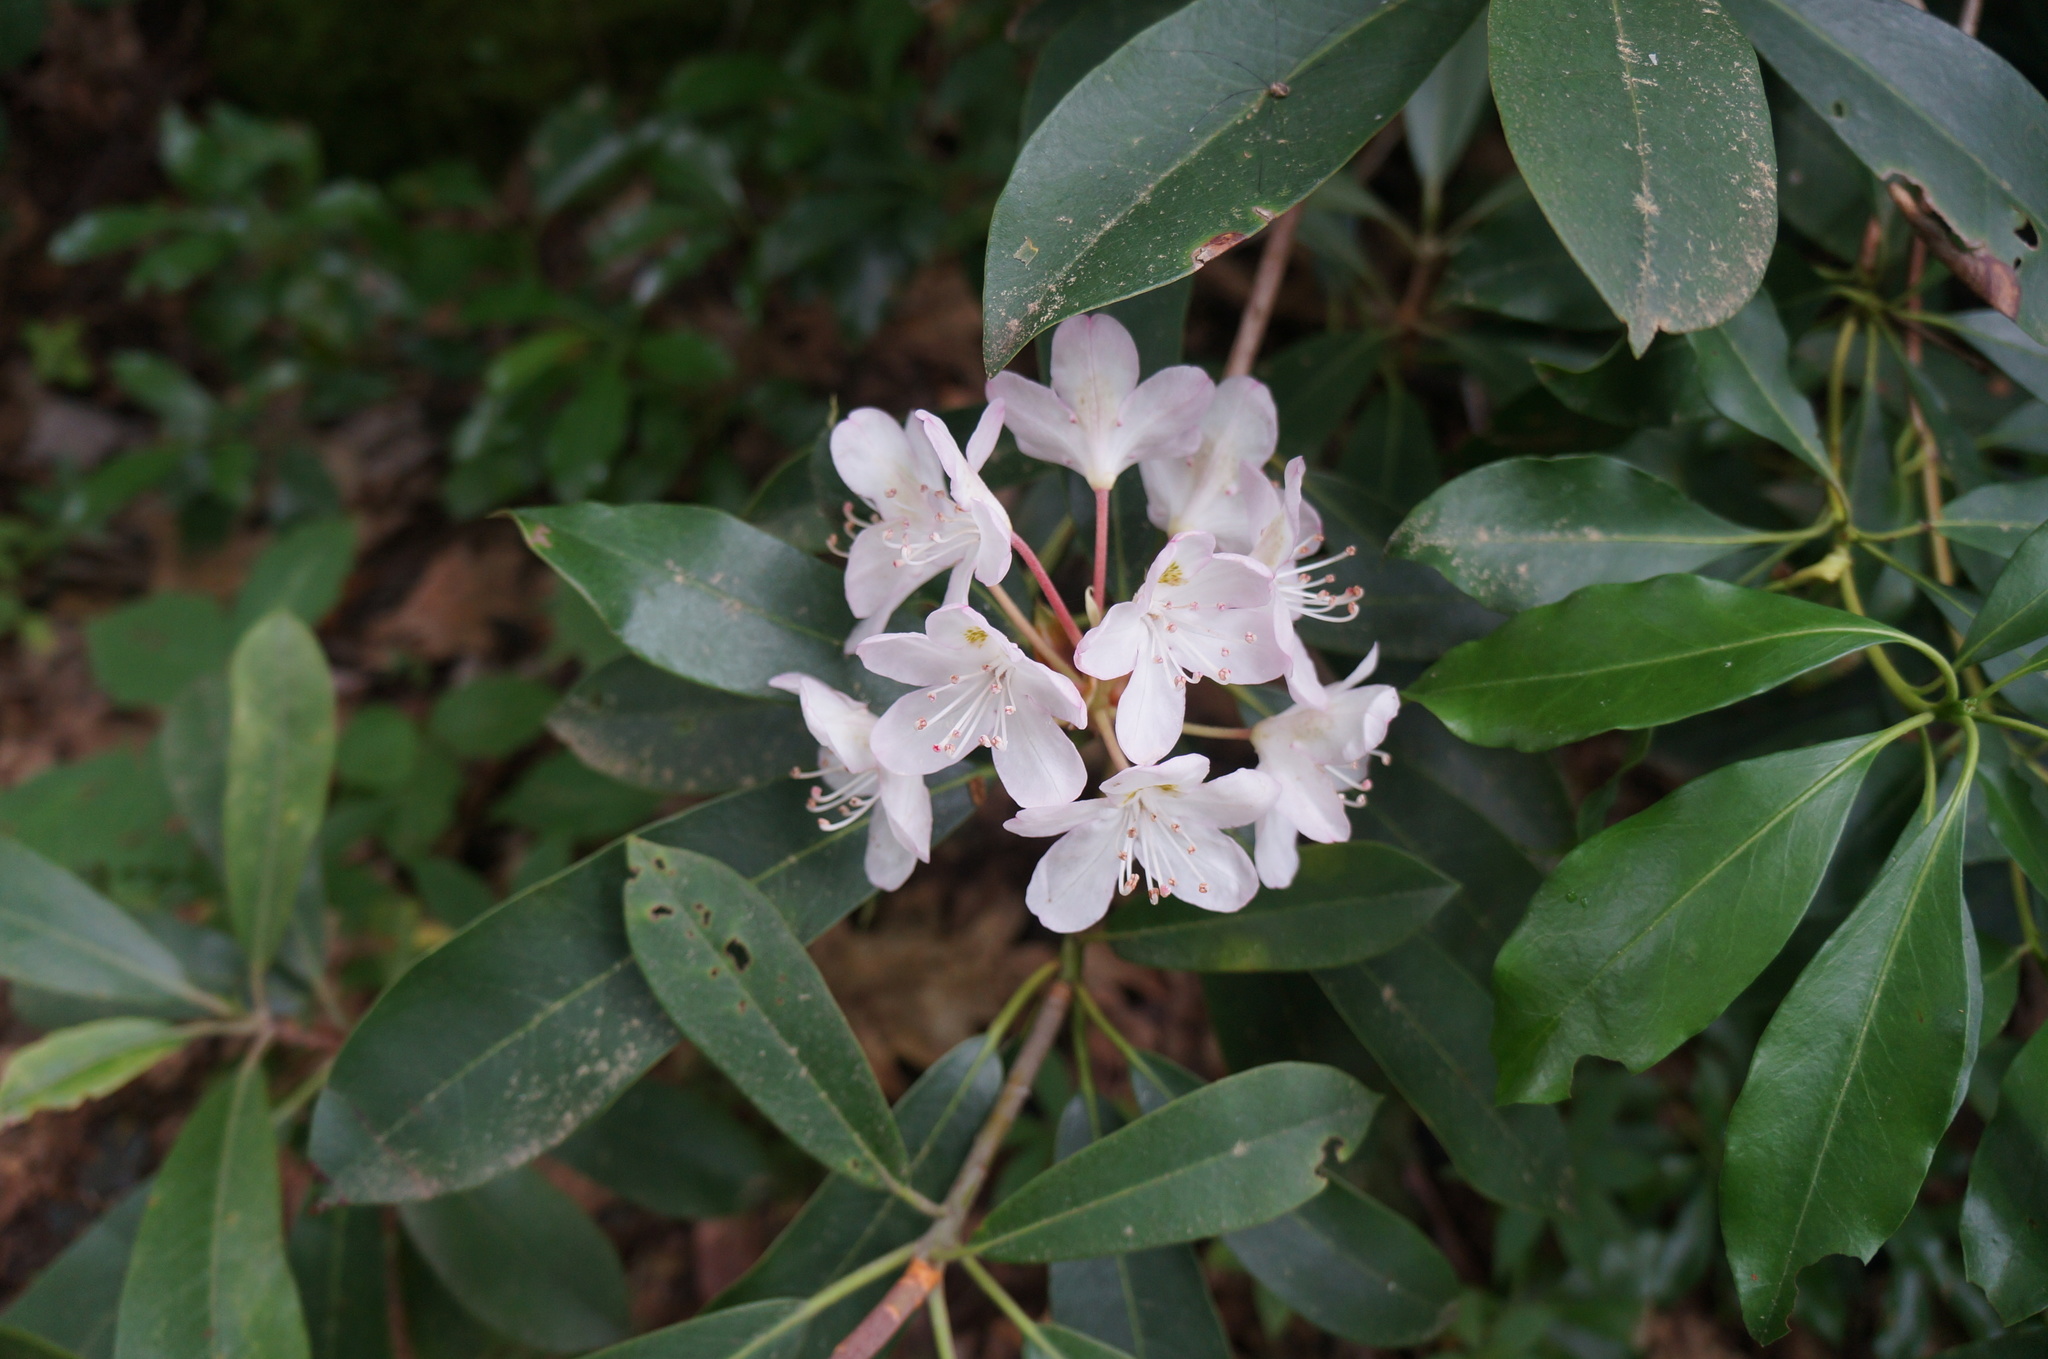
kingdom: Plantae
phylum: Tracheophyta
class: Magnoliopsida
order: Ericales
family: Ericaceae
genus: Rhododendron
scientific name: Rhododendron maximum
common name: Great rhododendron
